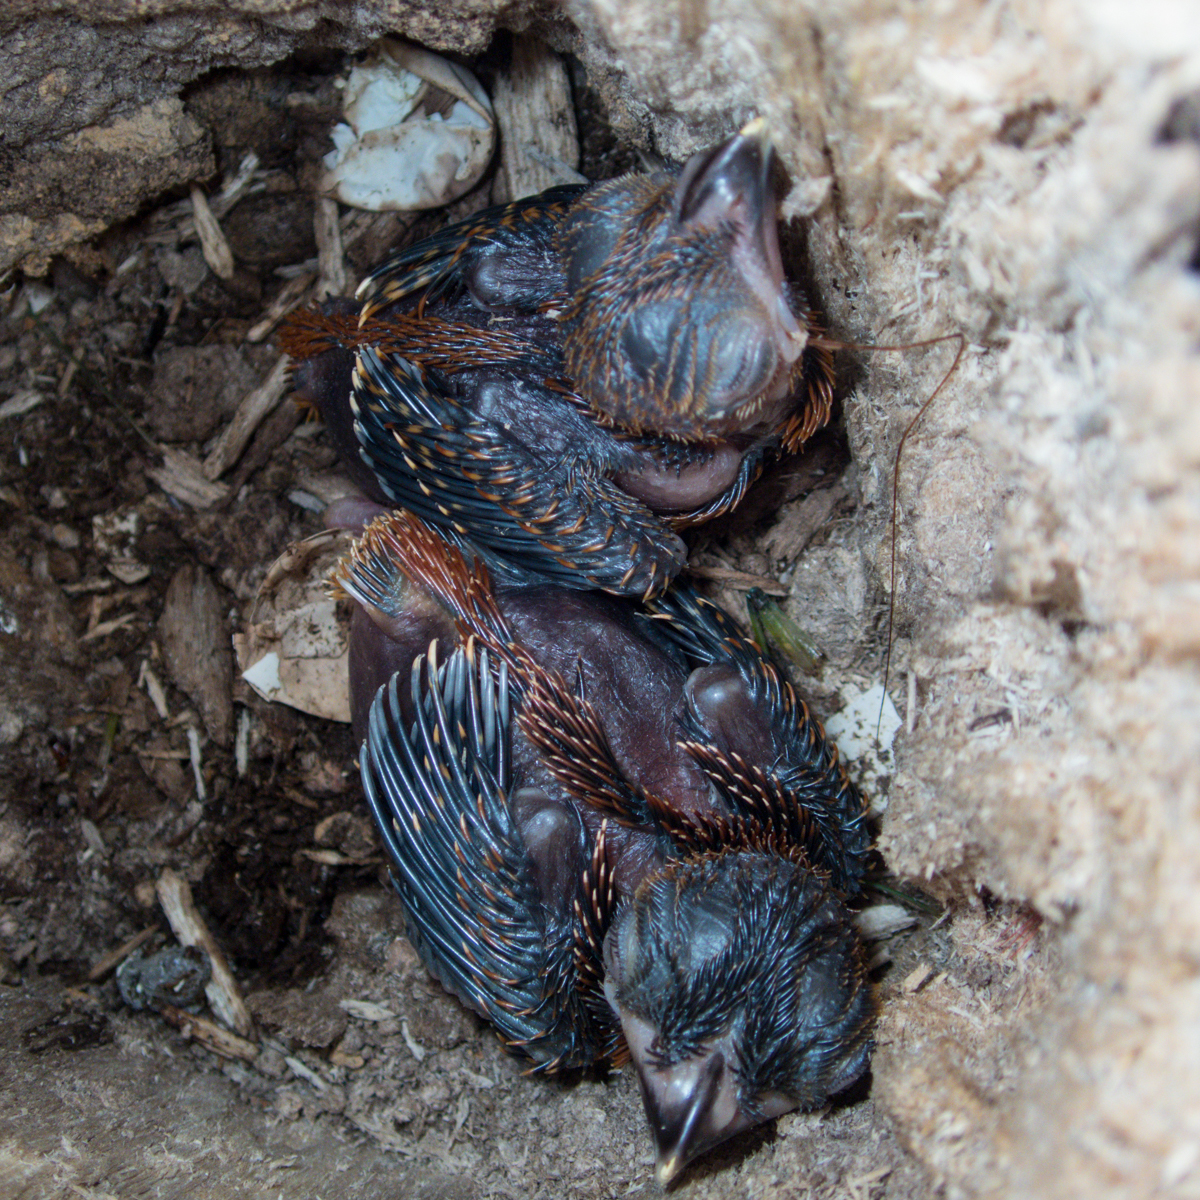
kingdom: Animalia
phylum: Chordata
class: Aves
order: Trogoniformes
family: Trogonidae
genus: Harpactes
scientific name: Harpactes erythrocephalus
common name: Red-headed trogon
